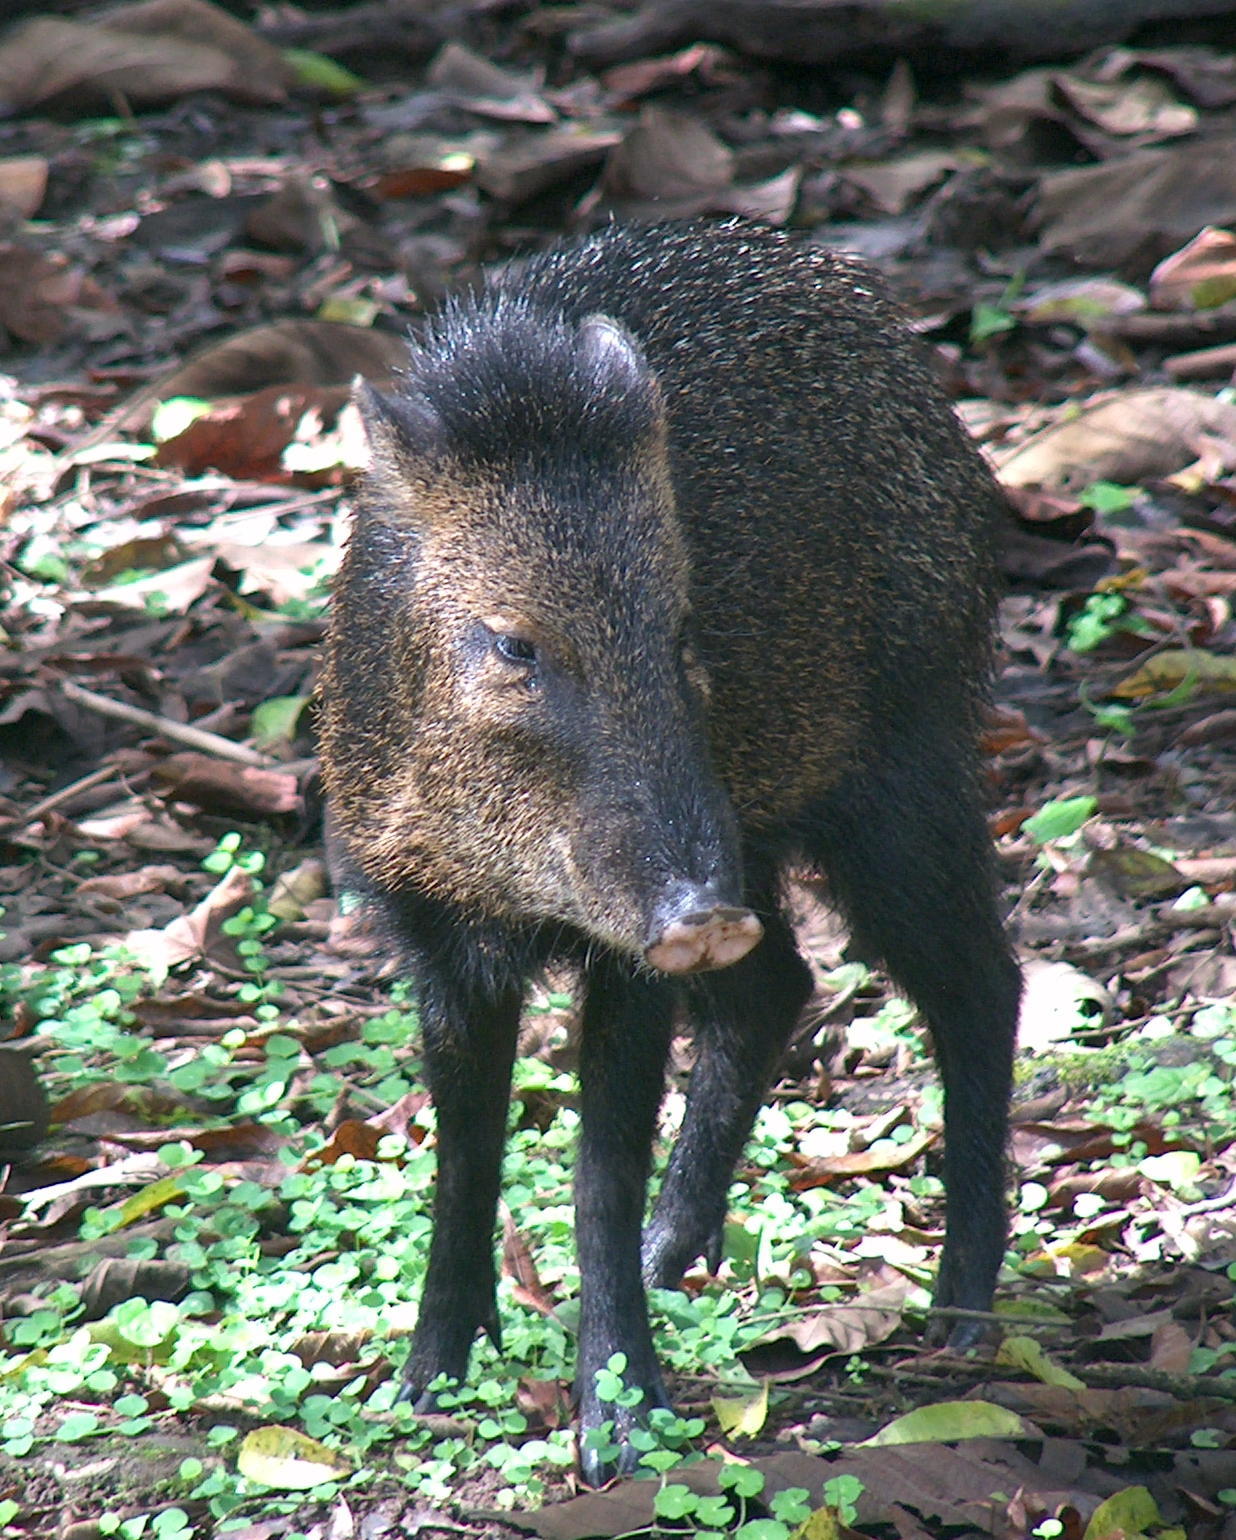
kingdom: Animalia
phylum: Chordata
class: Mammalia
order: Artiodactyla
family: Tayassuidae
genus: Pecari
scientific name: Pecari tajacu
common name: Collared peccary
